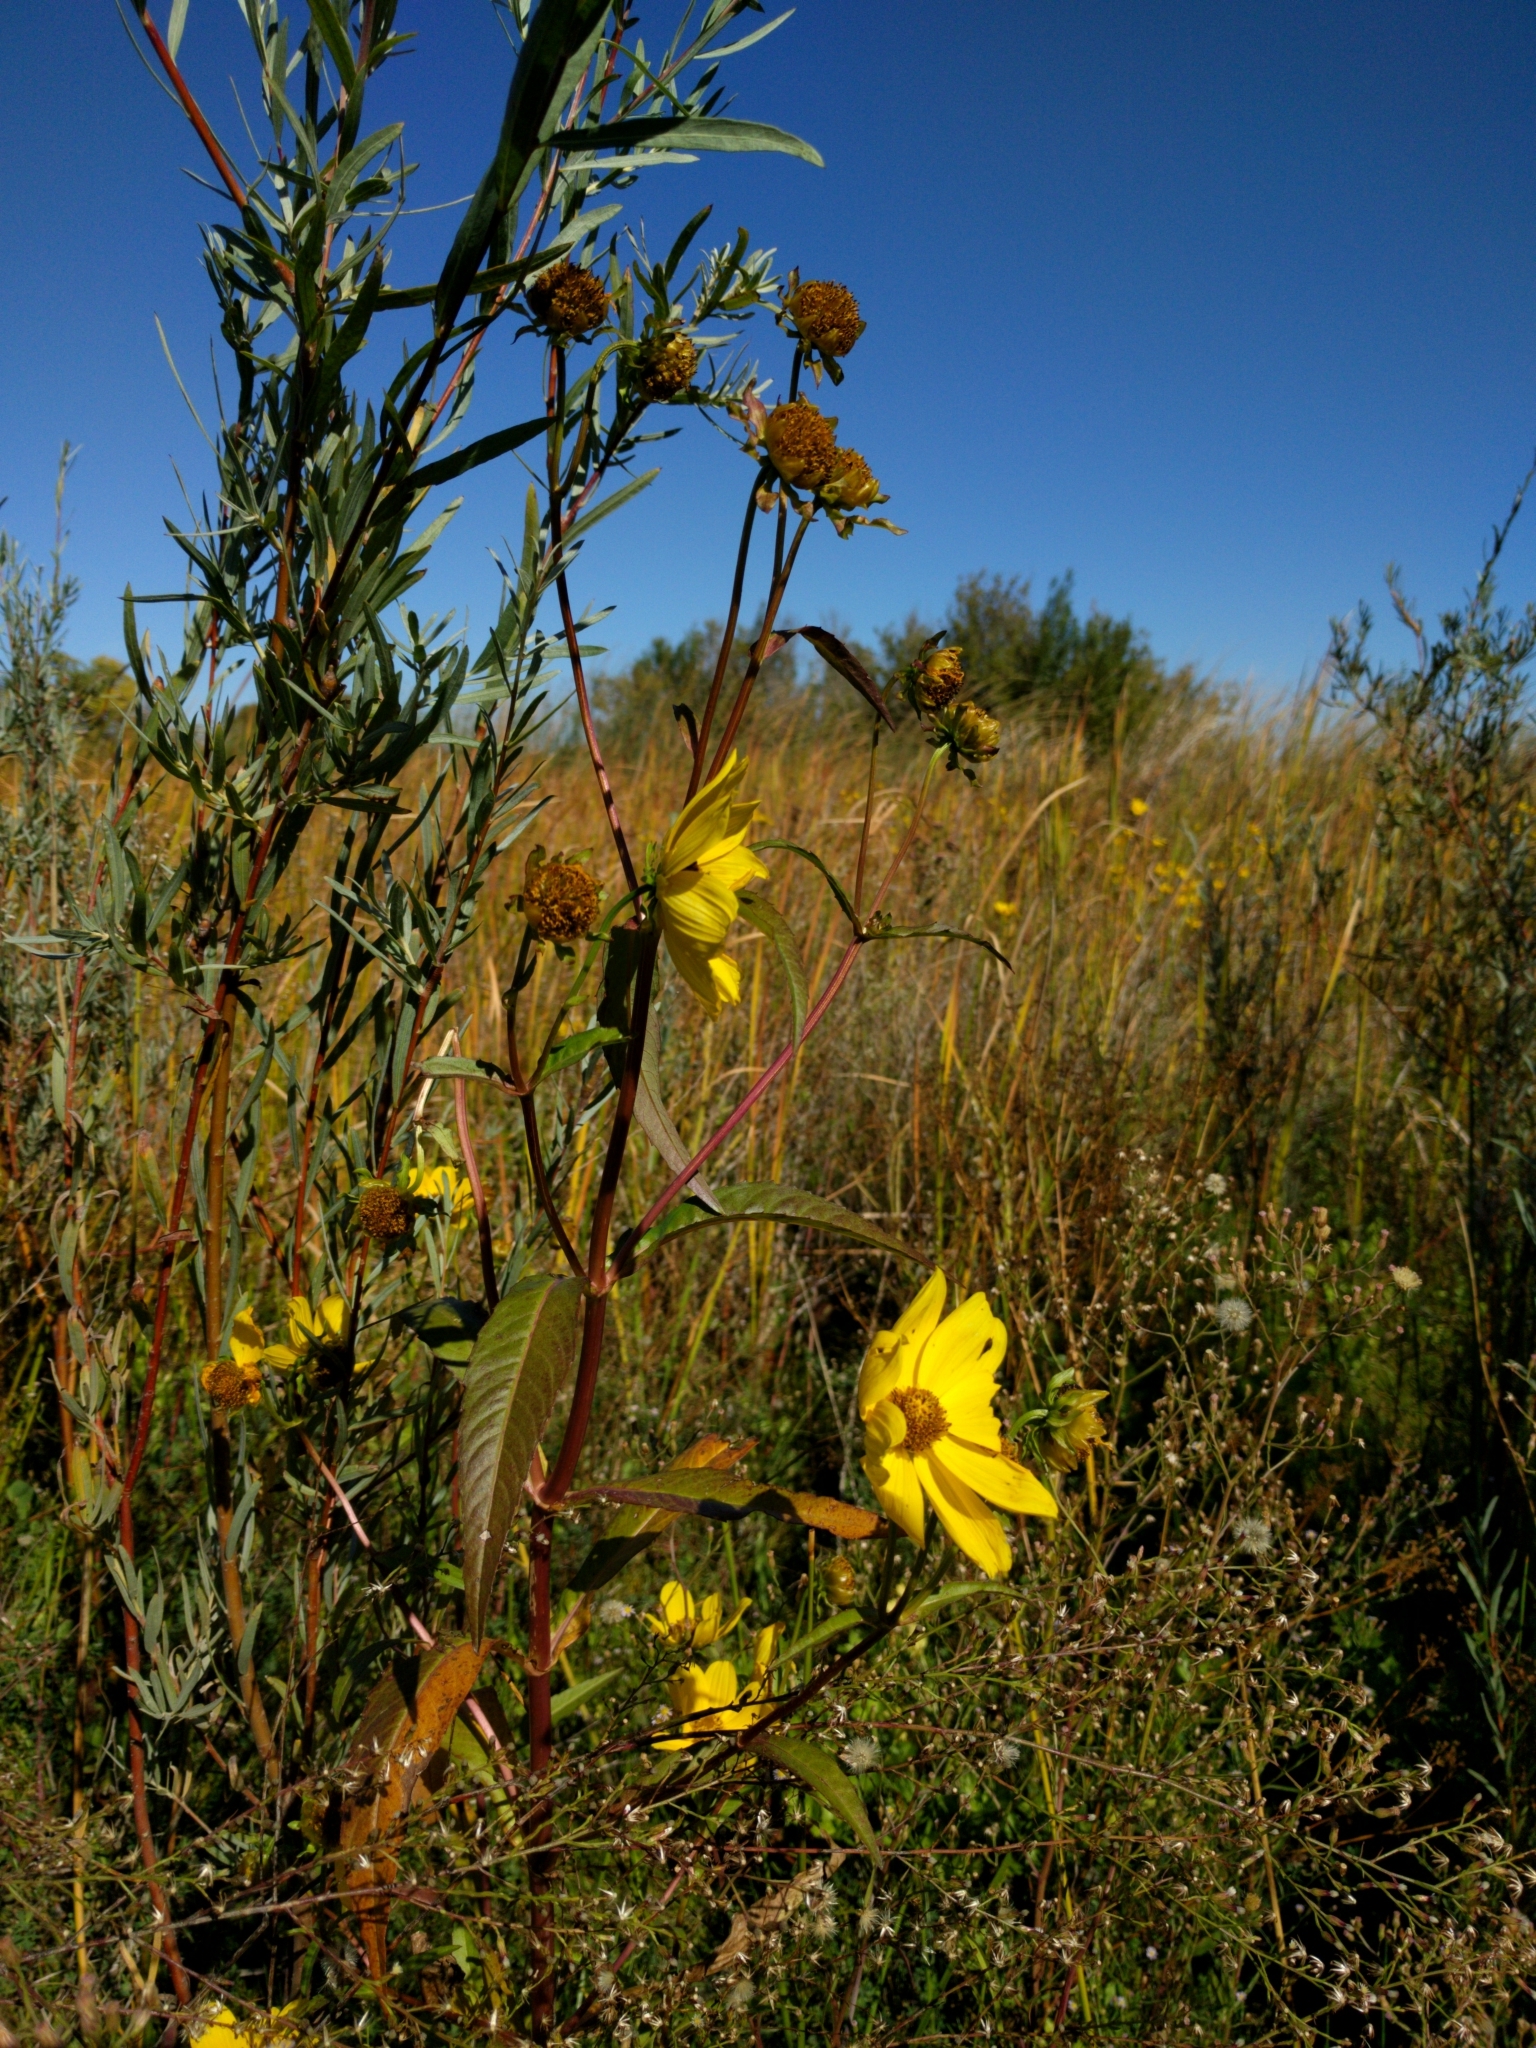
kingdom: Plantae
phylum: Tracheophyta
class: Magnoliopsida
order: Asterales
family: Asteraceae
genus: Bidens
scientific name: Bidens laevis
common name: Larger bur-marigold
